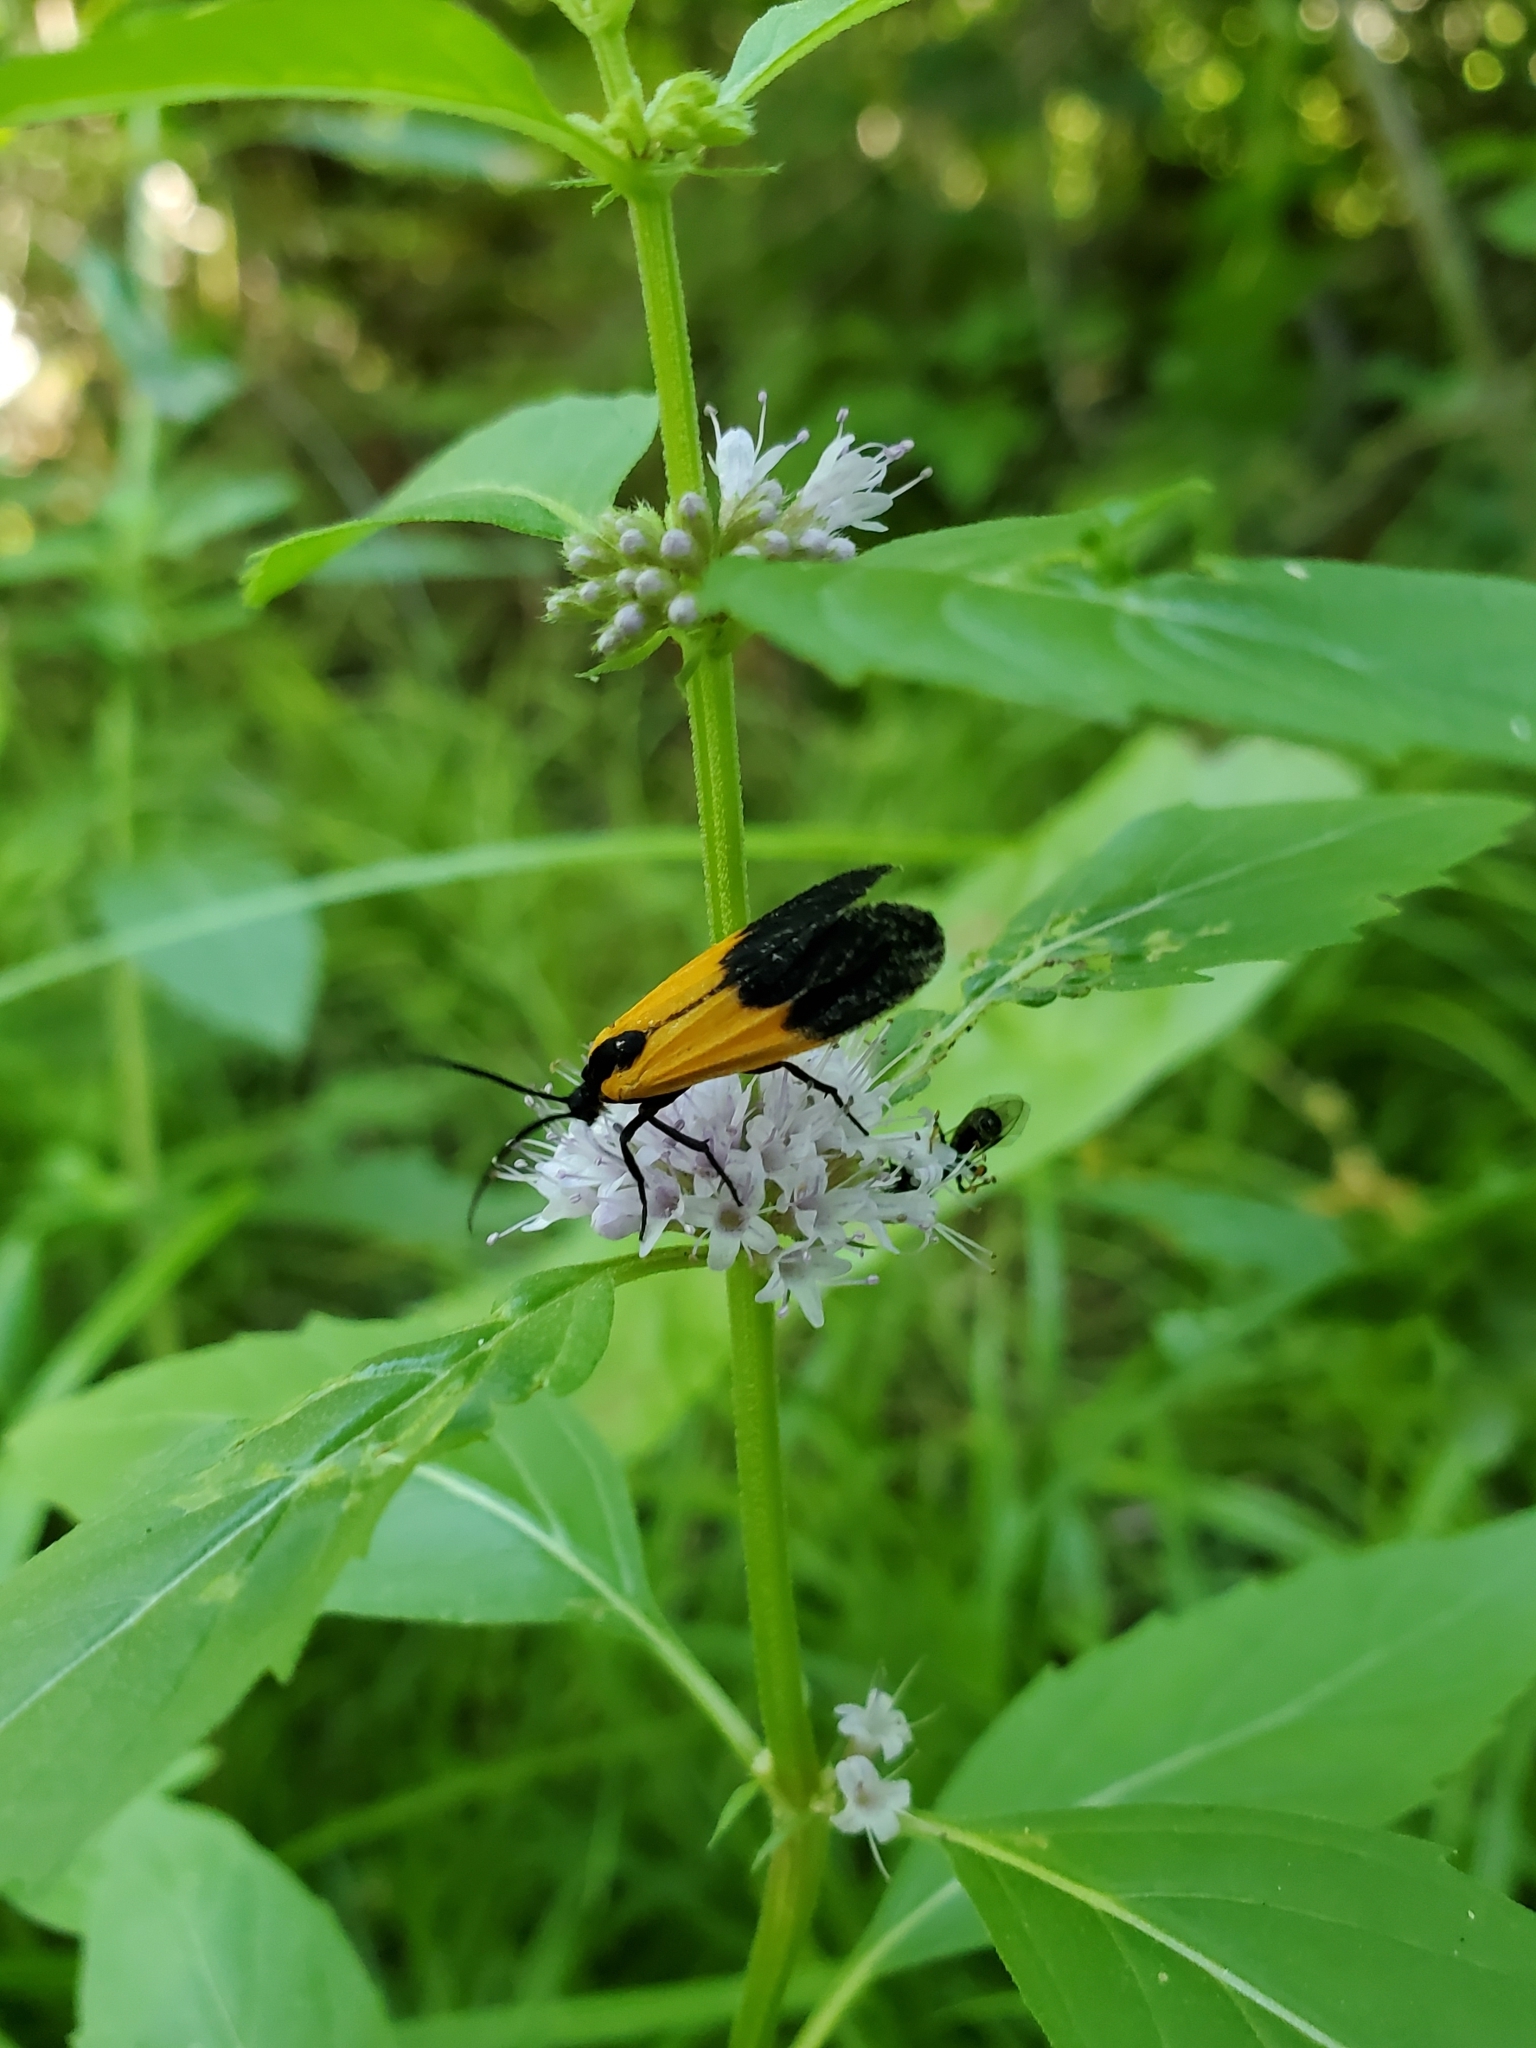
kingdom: Animalia
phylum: Arthropoda
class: Insecta
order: Lepidoptera
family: Erebidae
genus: Lycomorpha
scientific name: Lycomorpha pholus
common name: Black-and-yellow lichen moth
